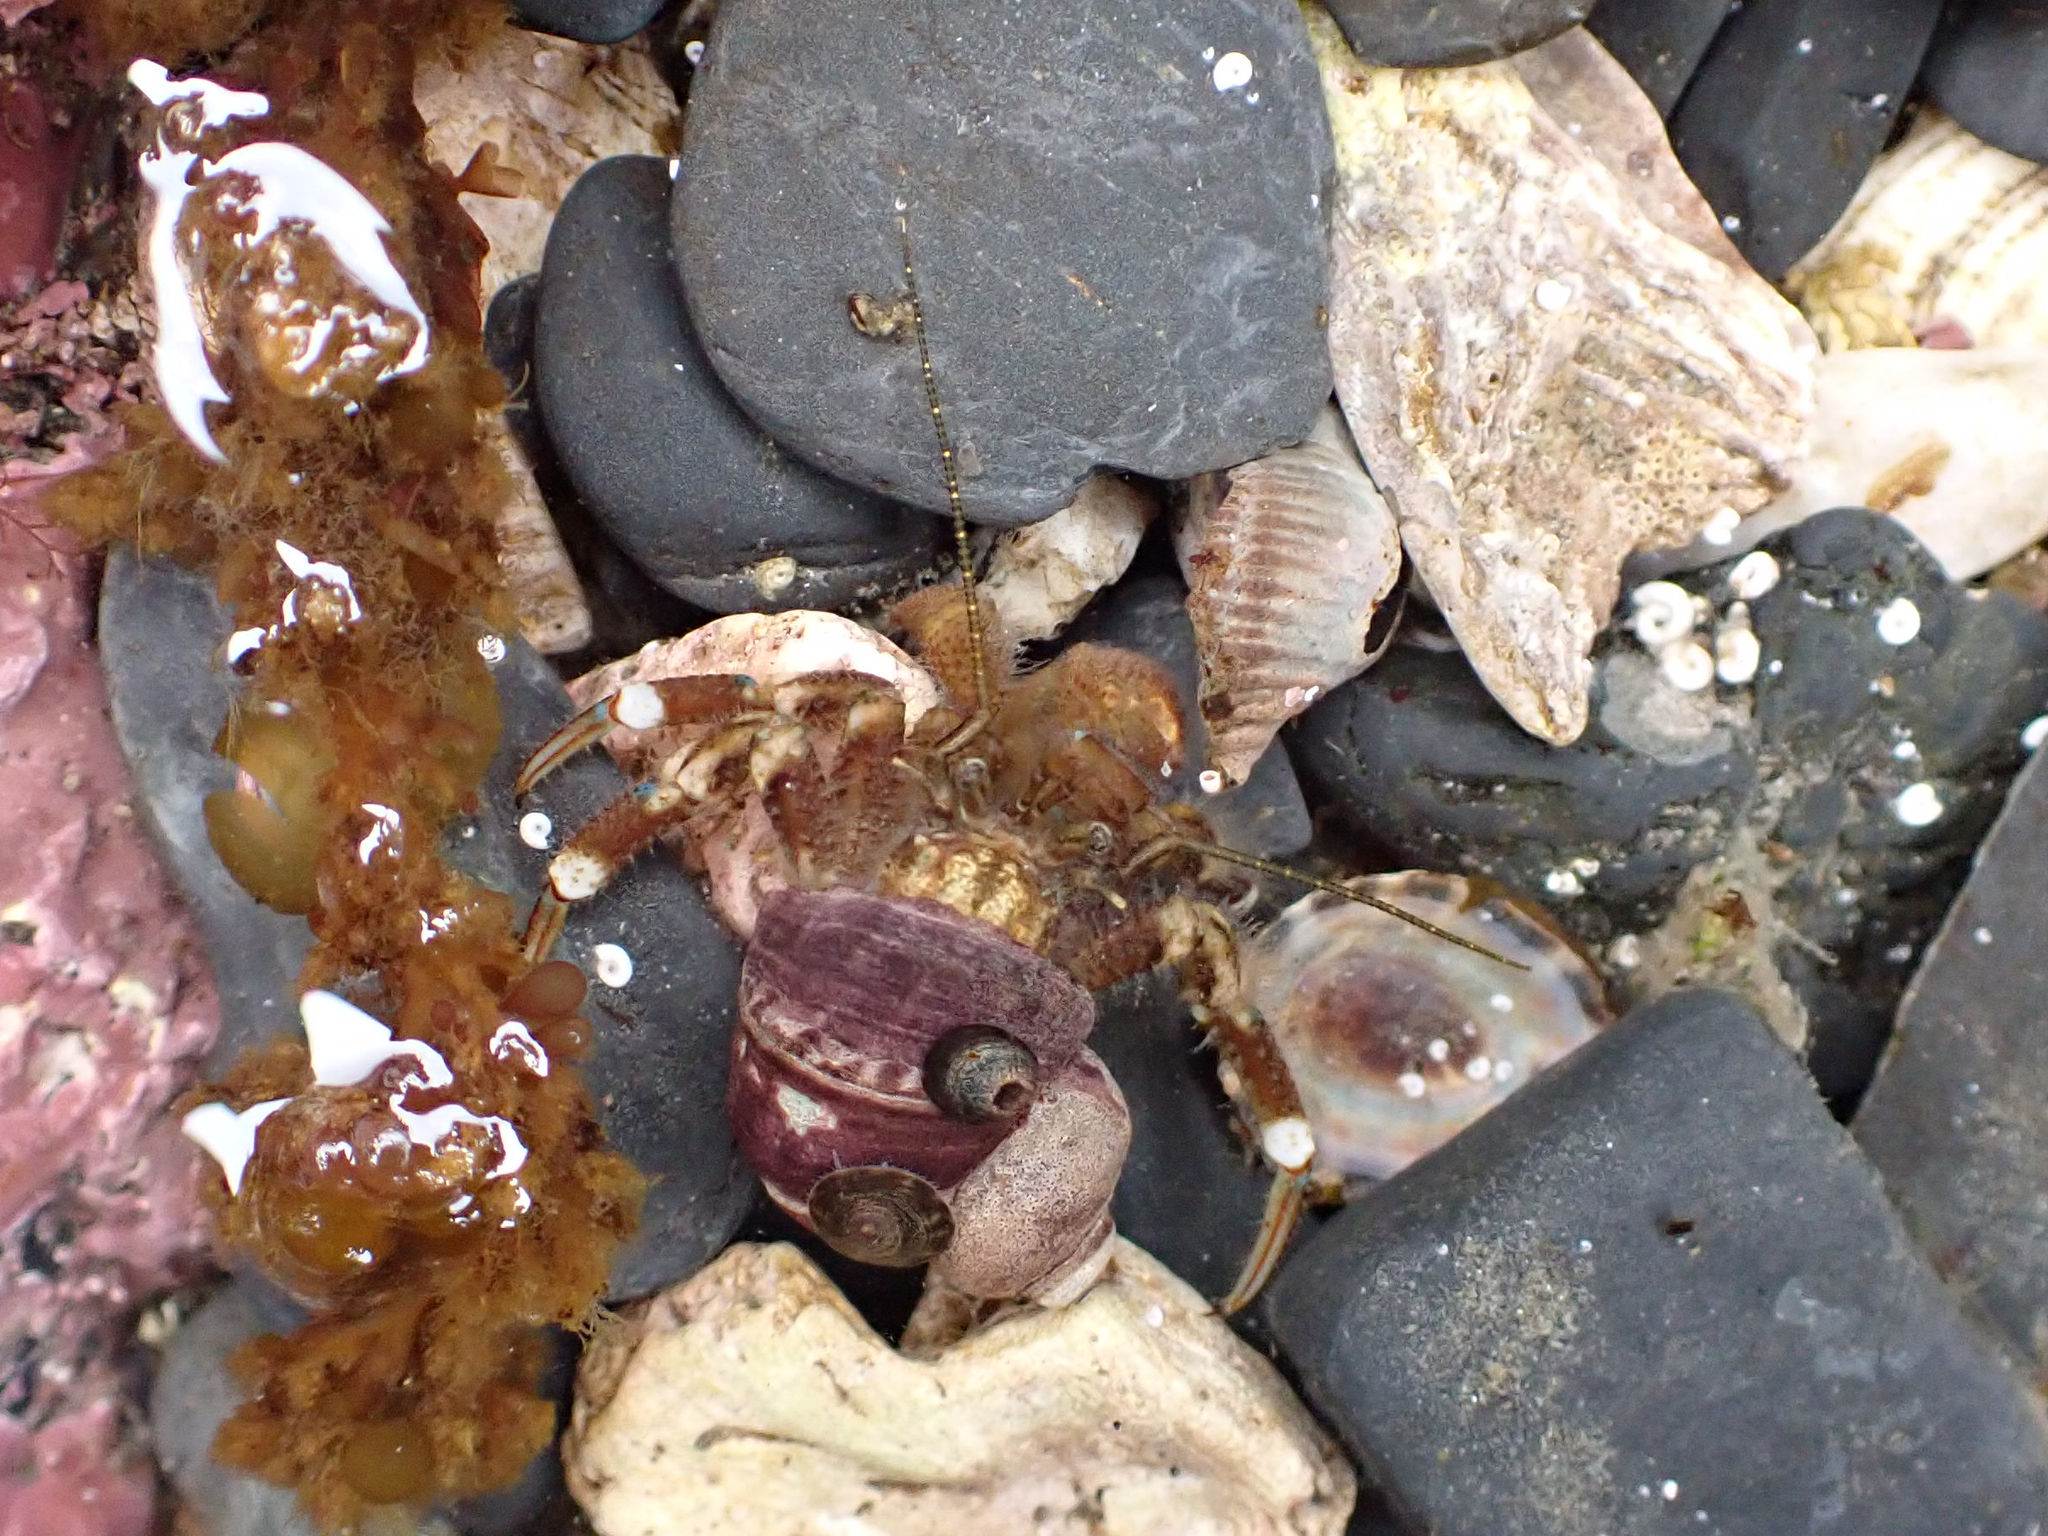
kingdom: Animalia
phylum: Arthropoda
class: Malacostraca
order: Decapoda
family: Paguridae
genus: Pagurus
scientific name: Pagurus hirsutiusculus
